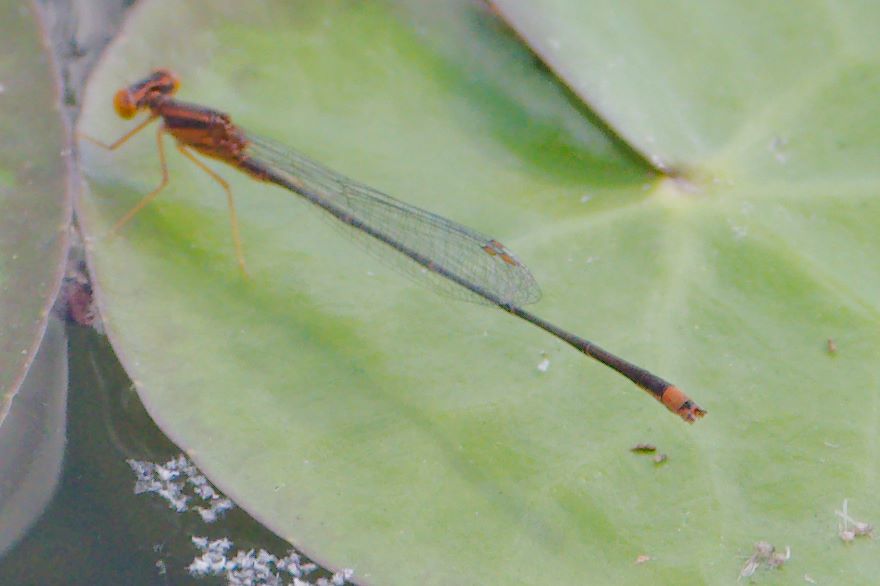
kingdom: Animalia
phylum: Arthropoda
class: Insecta
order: Odonata
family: Coenagrionidae
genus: Enallagma
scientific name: Enallagma pollutum
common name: Florida bluet
